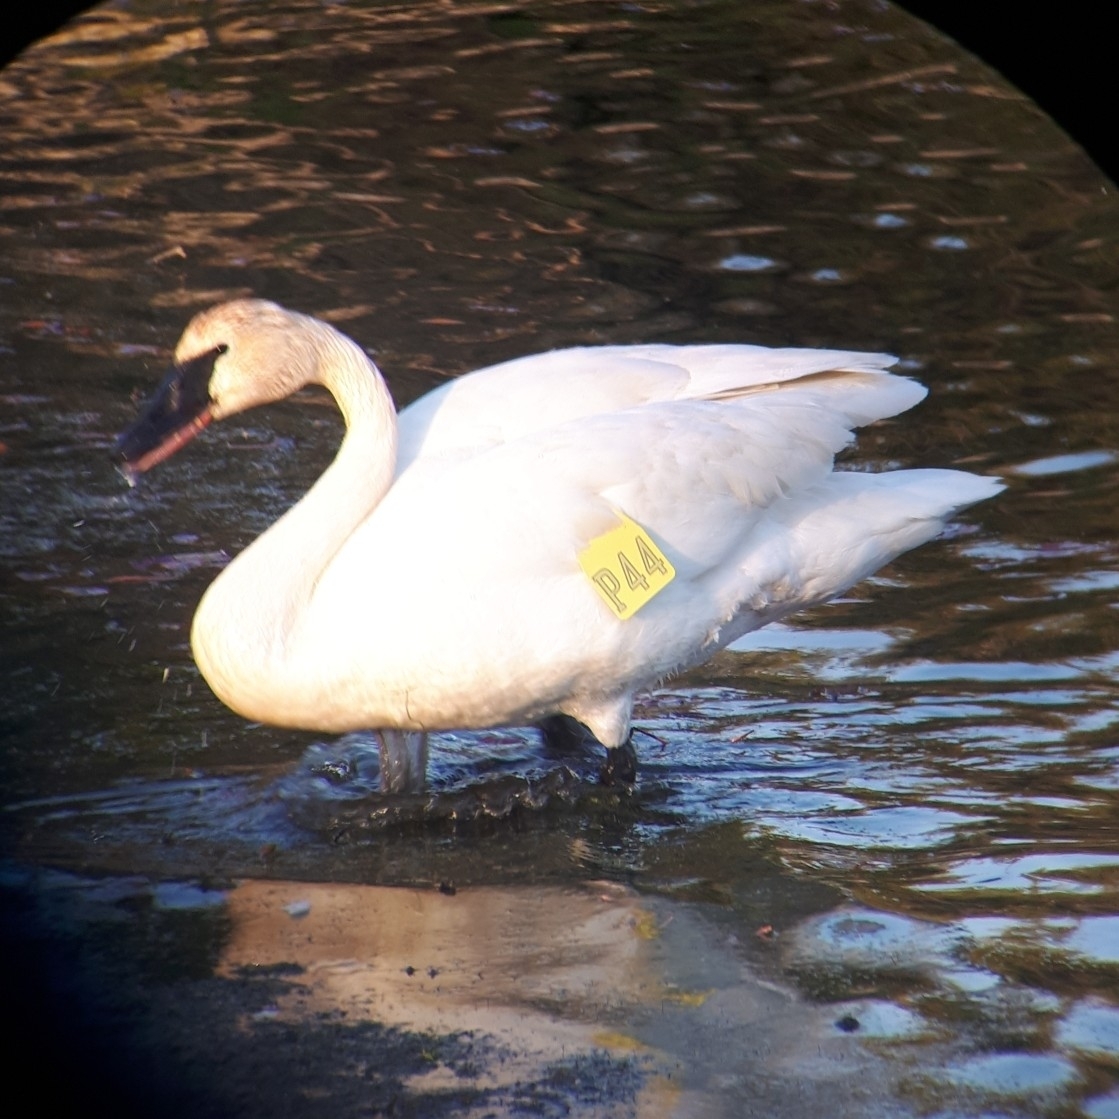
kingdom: Animalia
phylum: Chordata
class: Aves
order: Anseriformes
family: Anatidae
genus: Cygnus
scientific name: Cygnus buccinator
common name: Trumpeter swan
